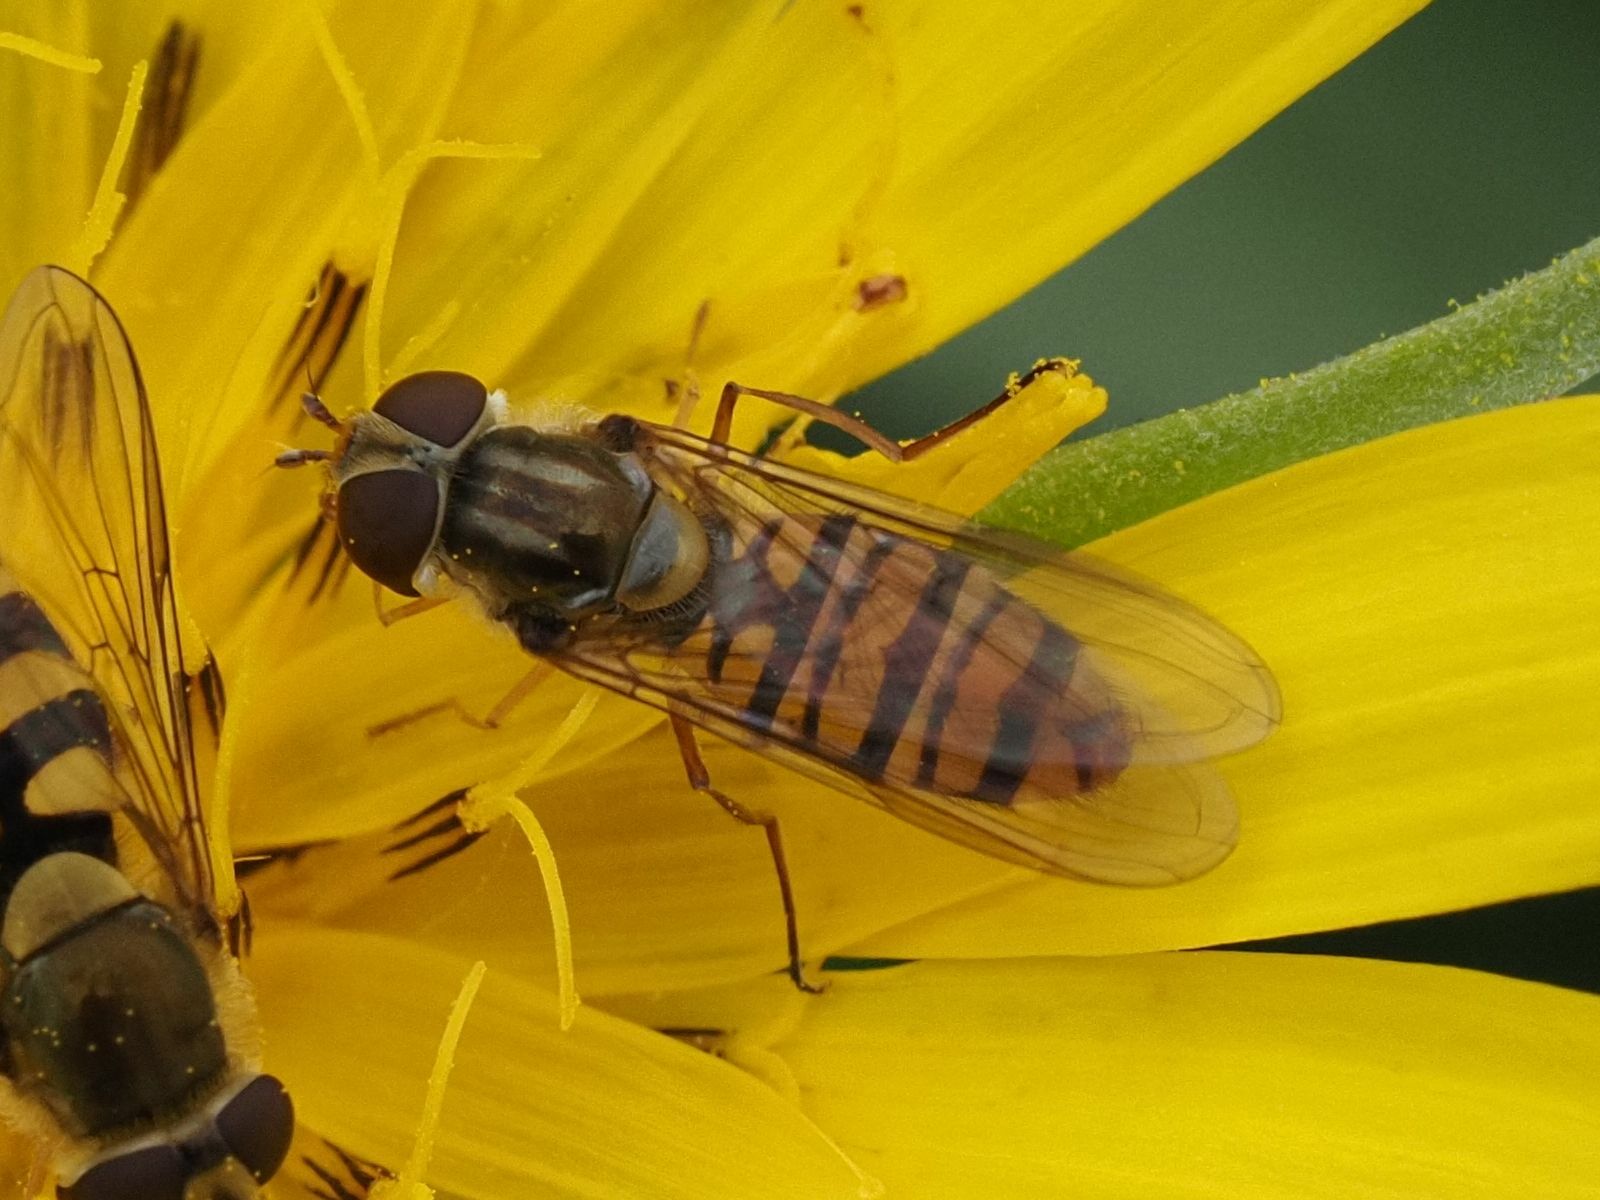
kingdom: Animalia
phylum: Arthropoda
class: Insecta
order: Diptera
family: Syrphidae
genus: Episyrphus
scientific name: Episyrphus balteatus
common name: Marmalade hoverfly
